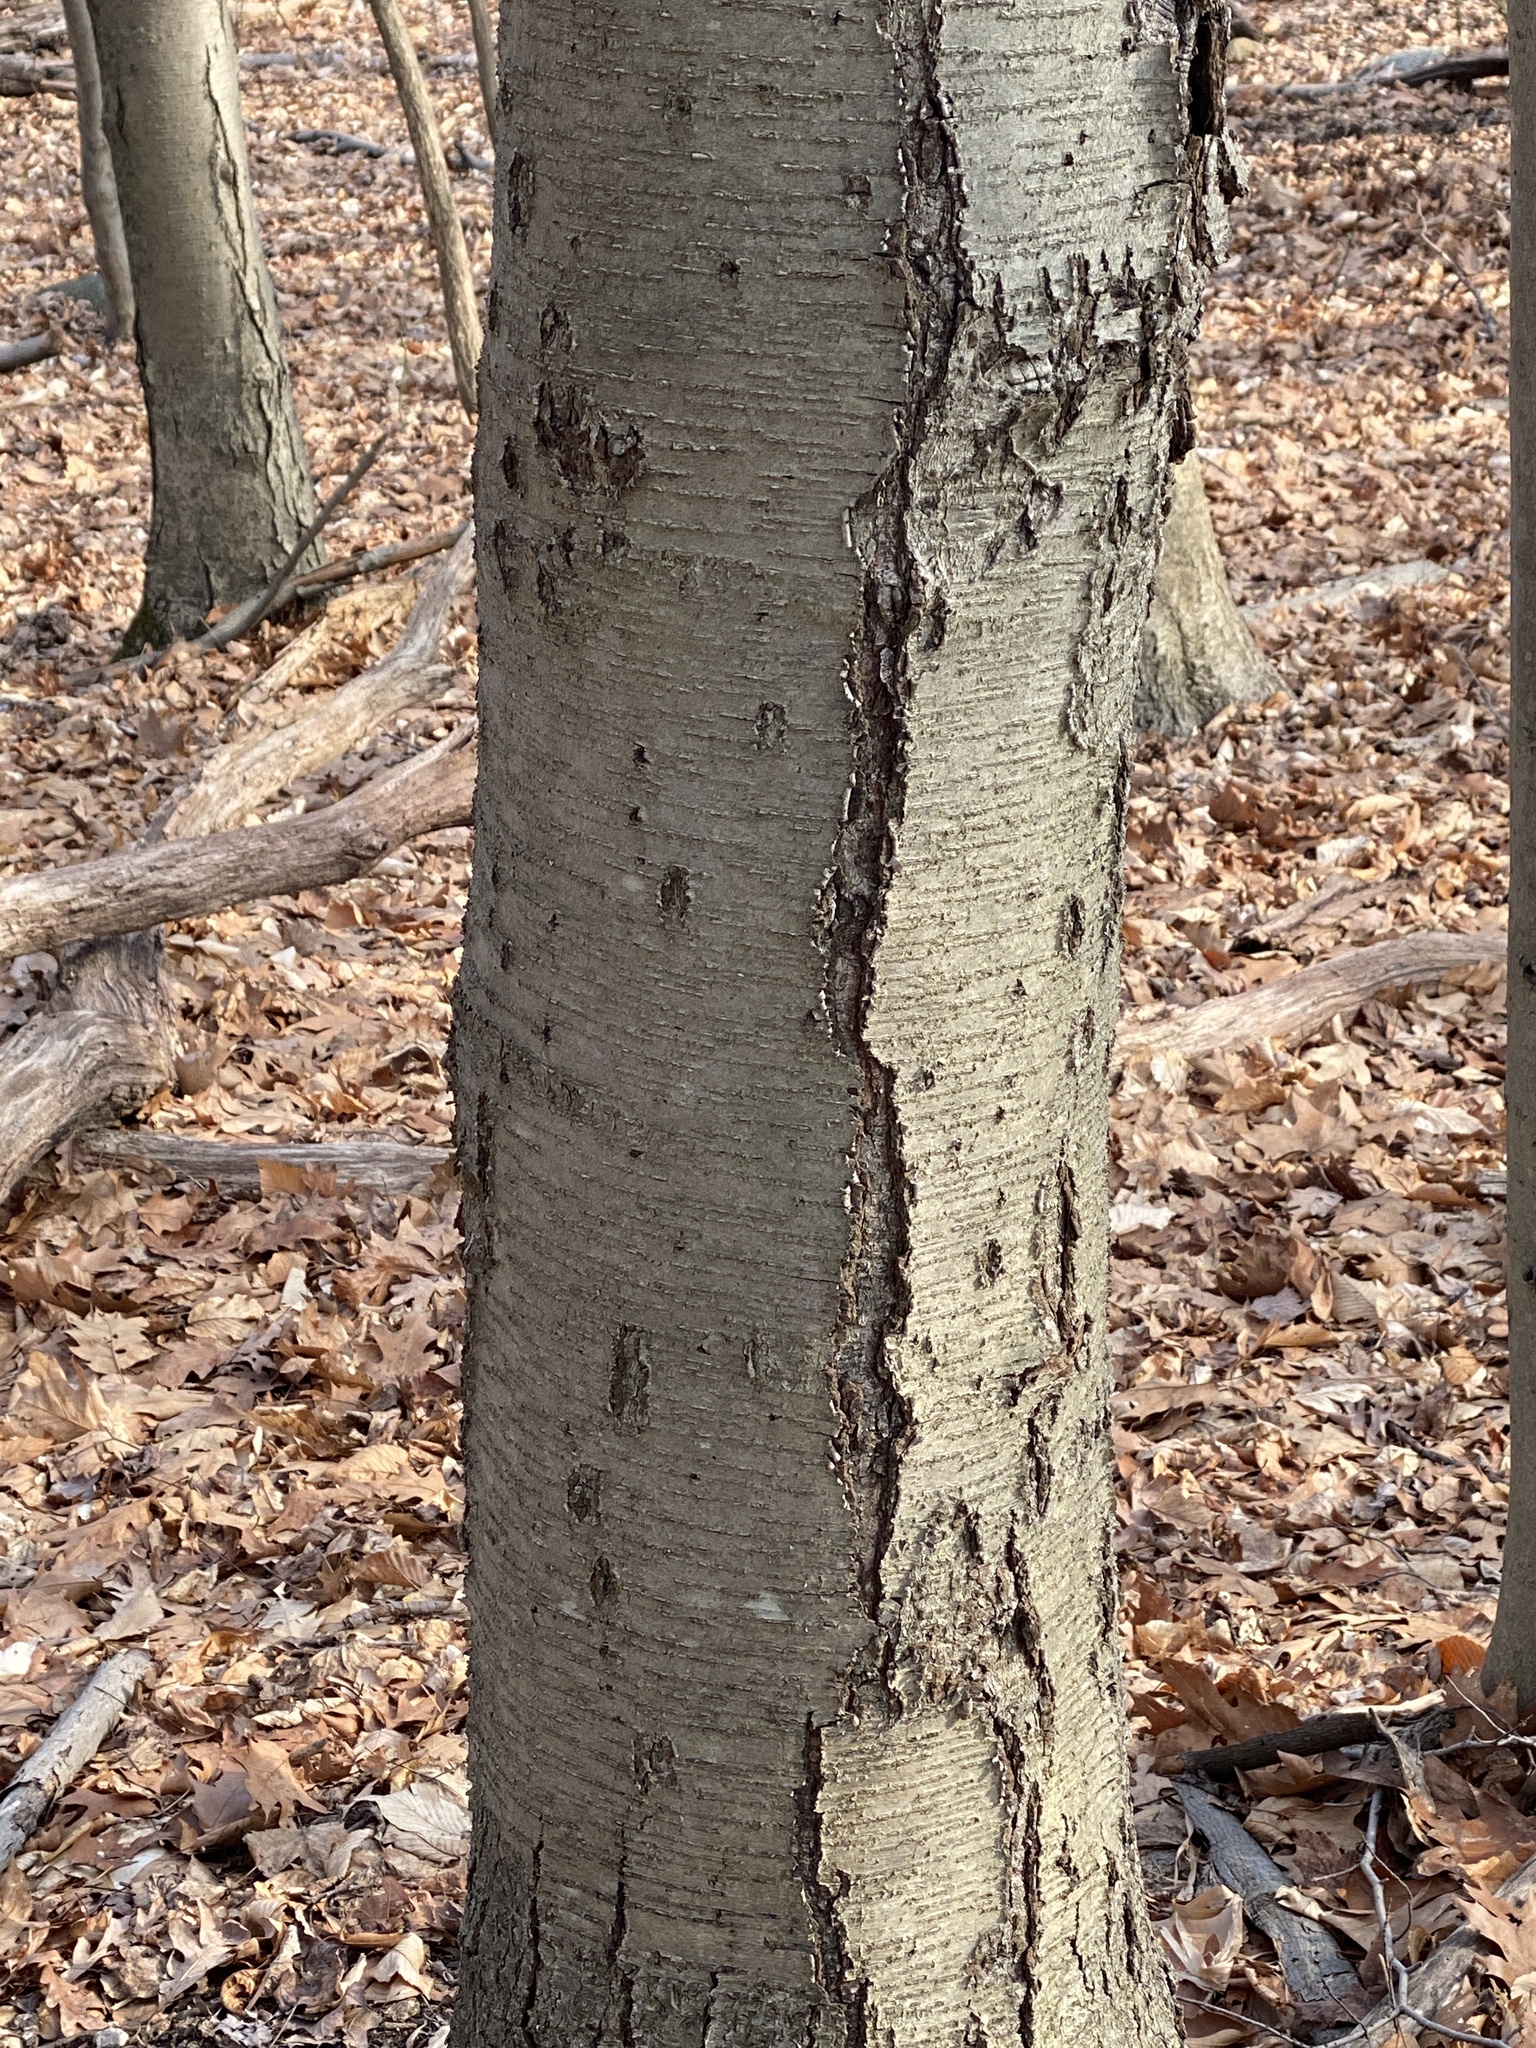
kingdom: Plantae
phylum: Tracheophyta
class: Magnoliopsida
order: Fagales
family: Betulaceae
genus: Betula
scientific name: Betula lenta
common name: Black birch
